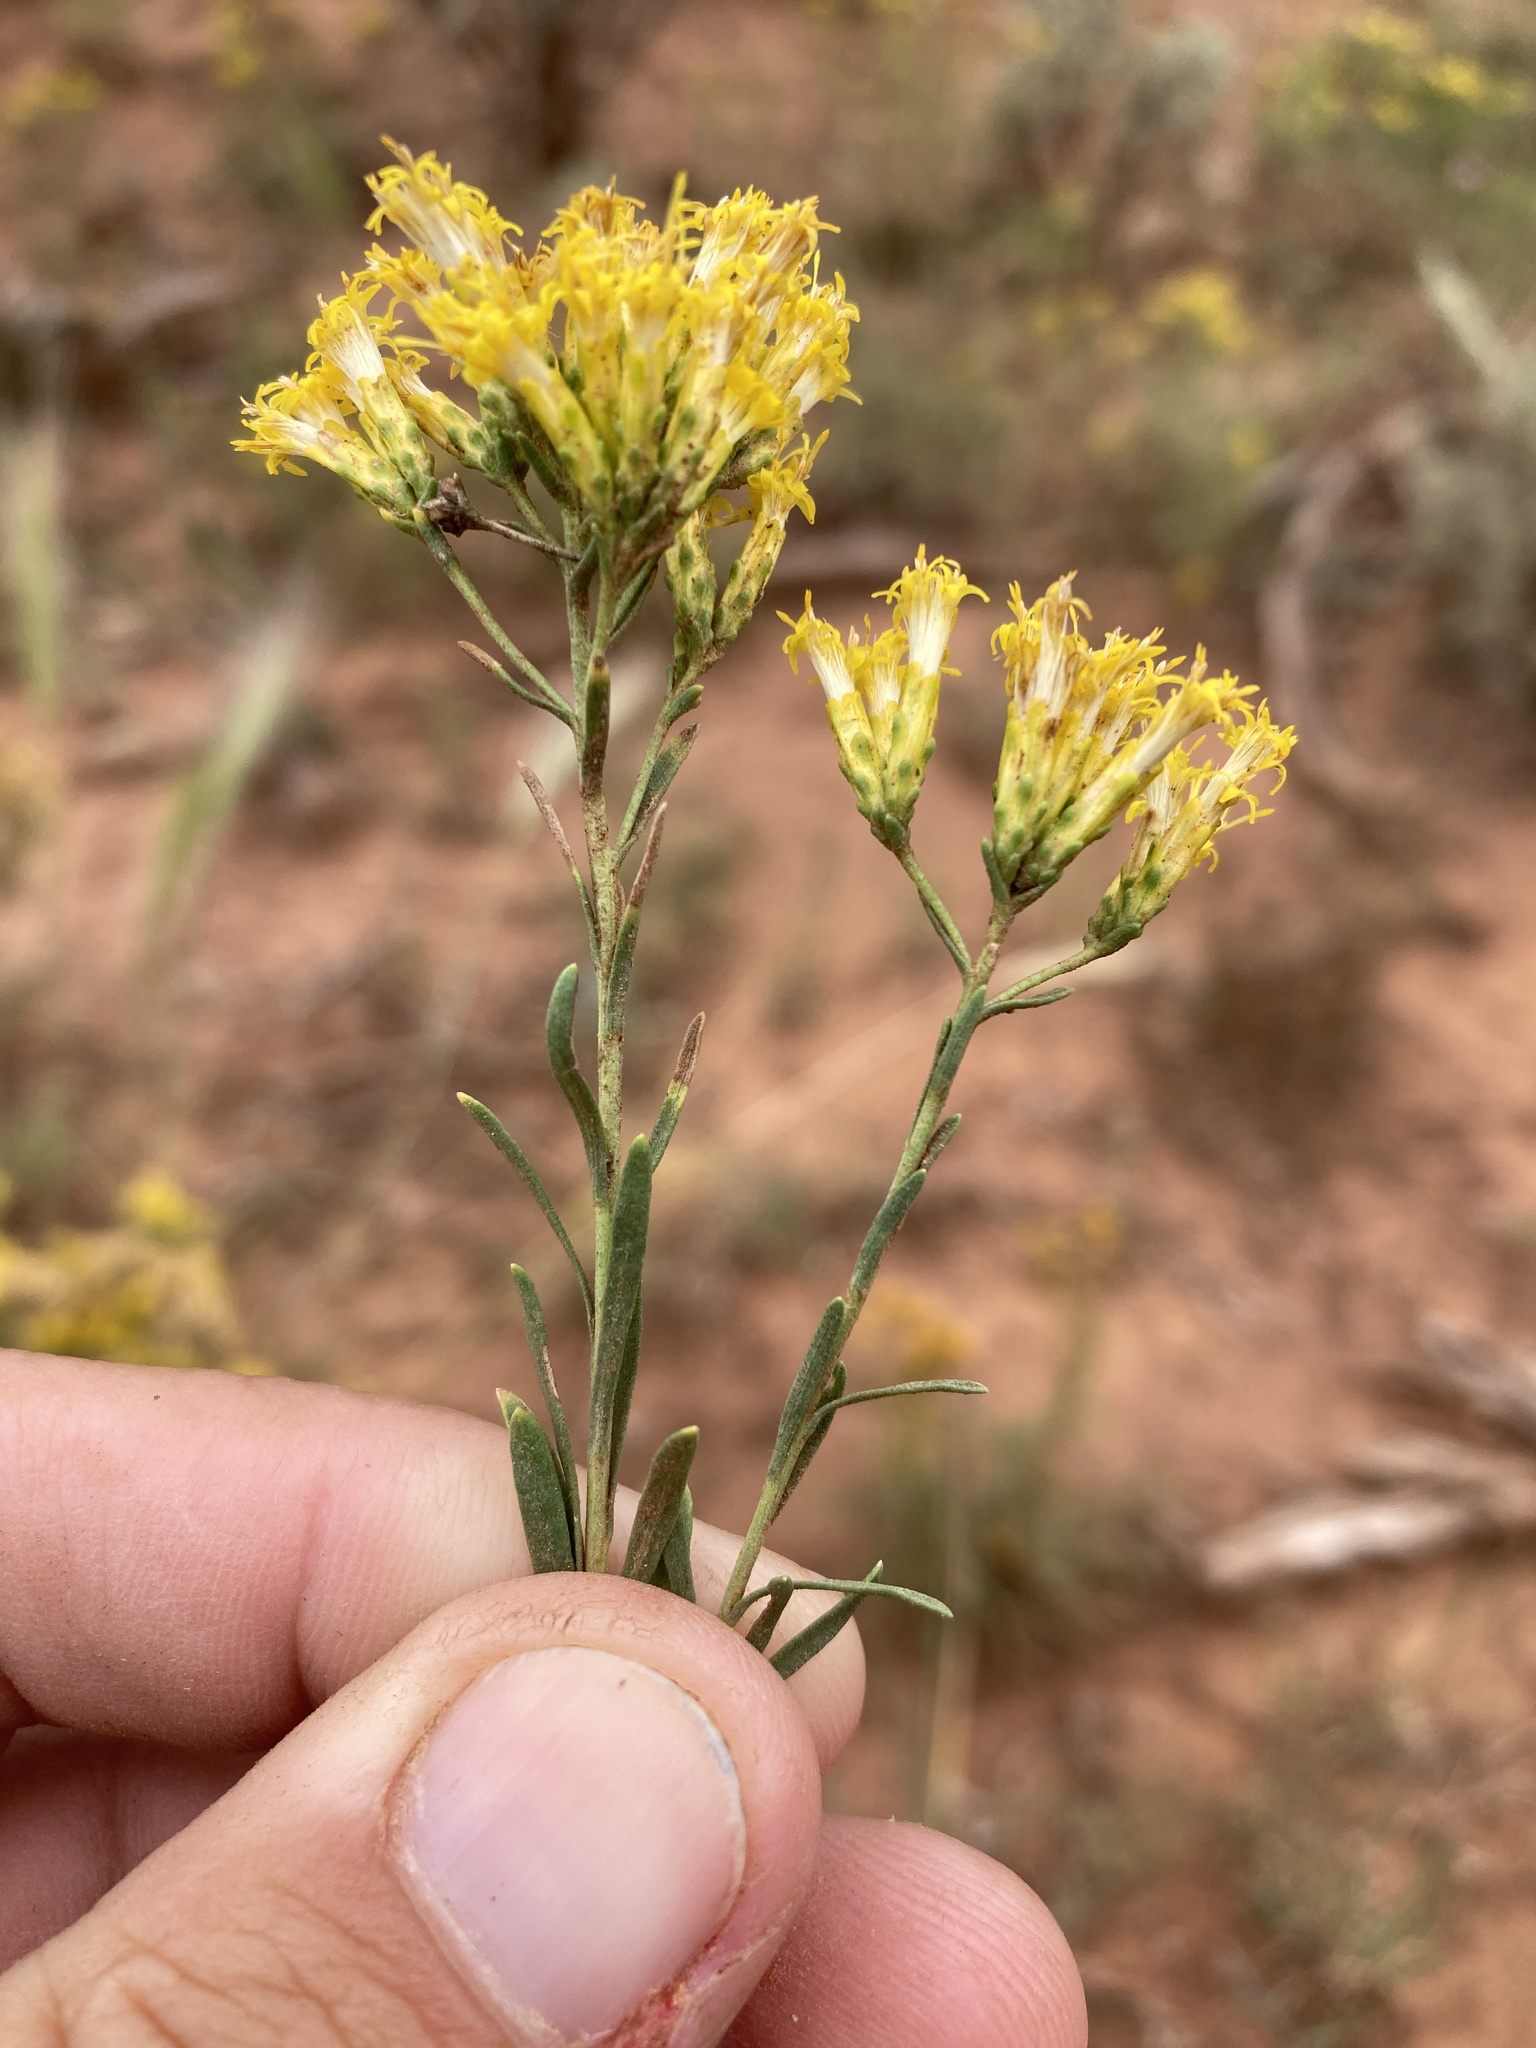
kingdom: Plantae
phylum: Tracheophyta
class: Magnoliopsida
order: Asterales
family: Asteraceae
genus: Chrysothamnus
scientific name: Chrysothamnus vaseyi
